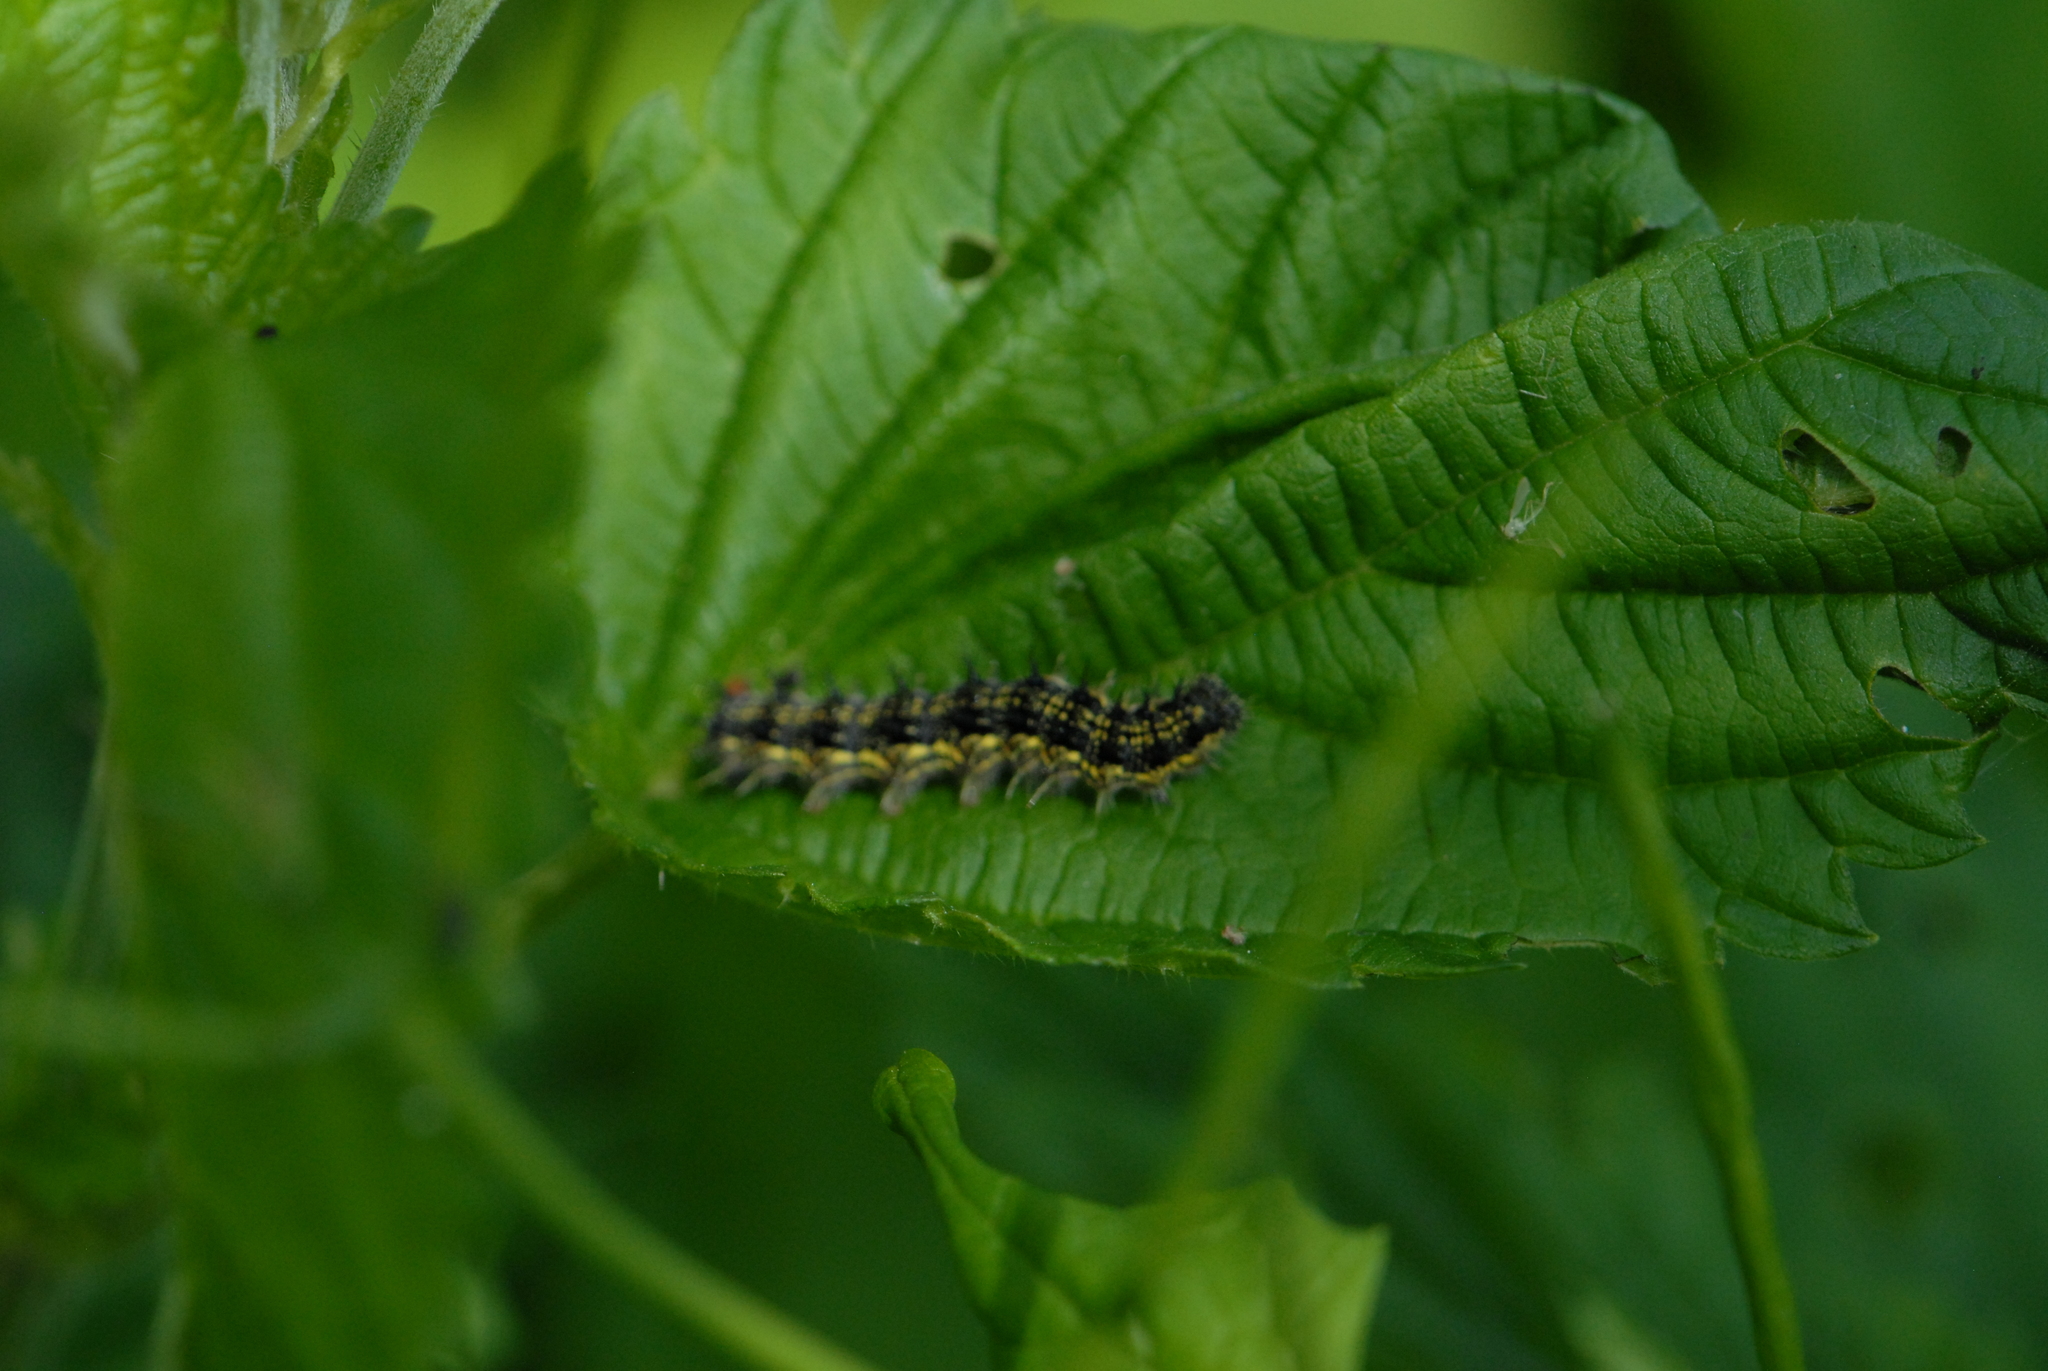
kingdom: Animalia
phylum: Arthropoda
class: Insecta
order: Lepidoptera
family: Nymphalidae
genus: Aglais
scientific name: Aglais urticae
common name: Small tortoiseshell
